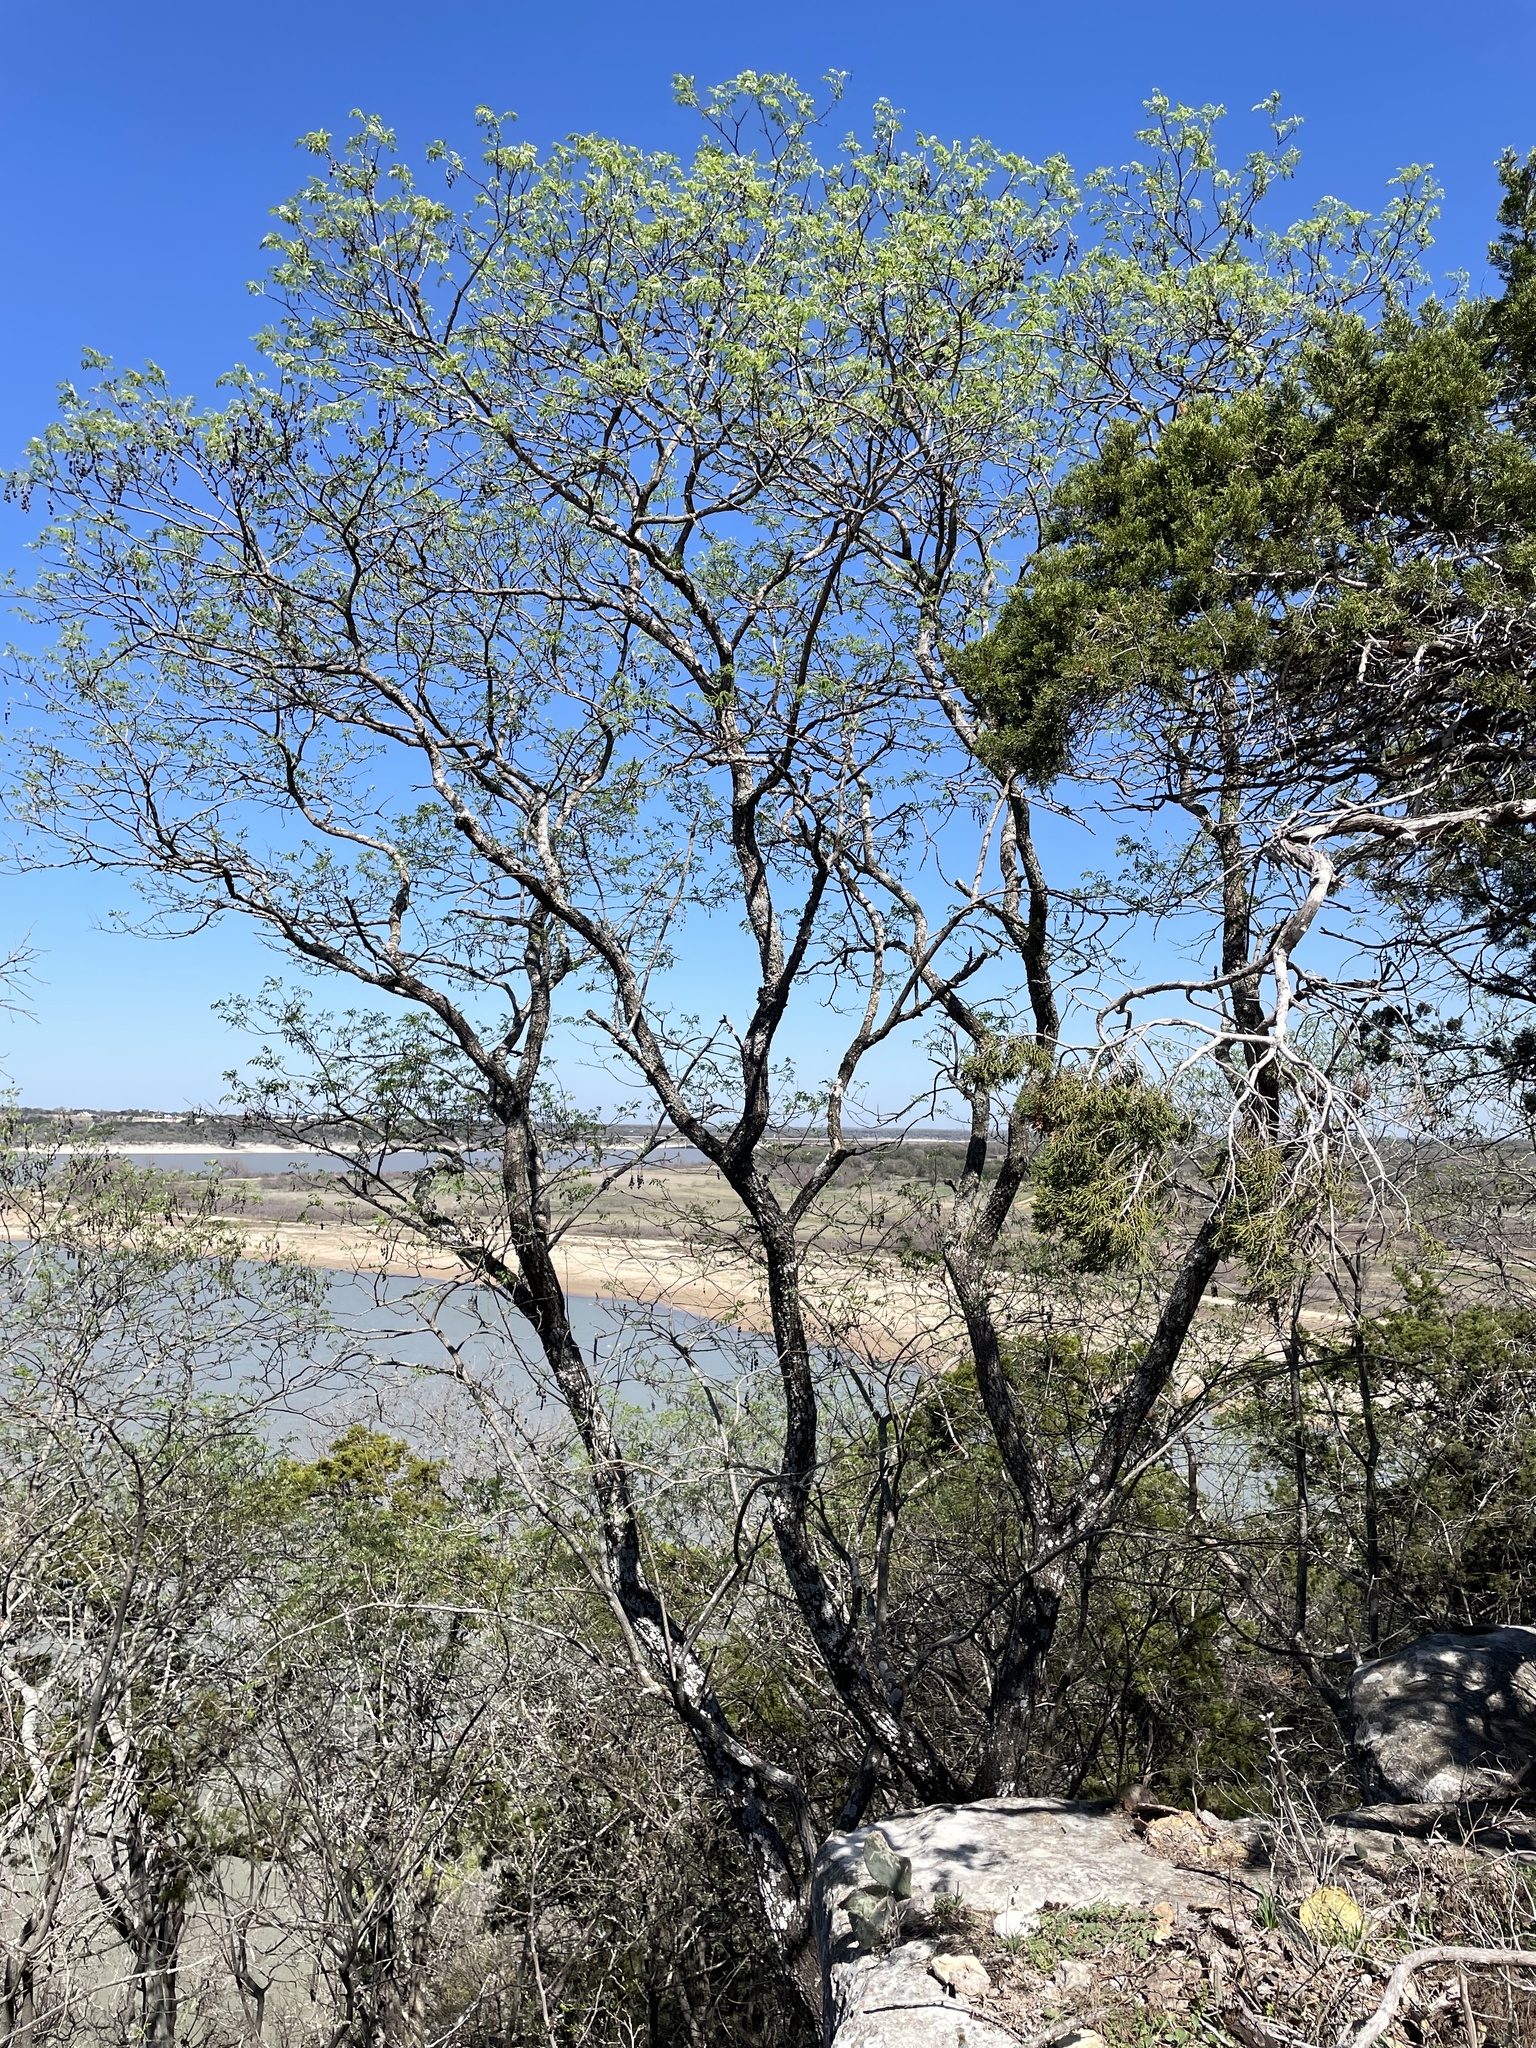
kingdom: Plantae
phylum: Tracheophyta
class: Magnoliopsida
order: Fabales
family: Fabaceae
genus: Styphnolobium
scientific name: Styphnolobium affine
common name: Texas sophora
